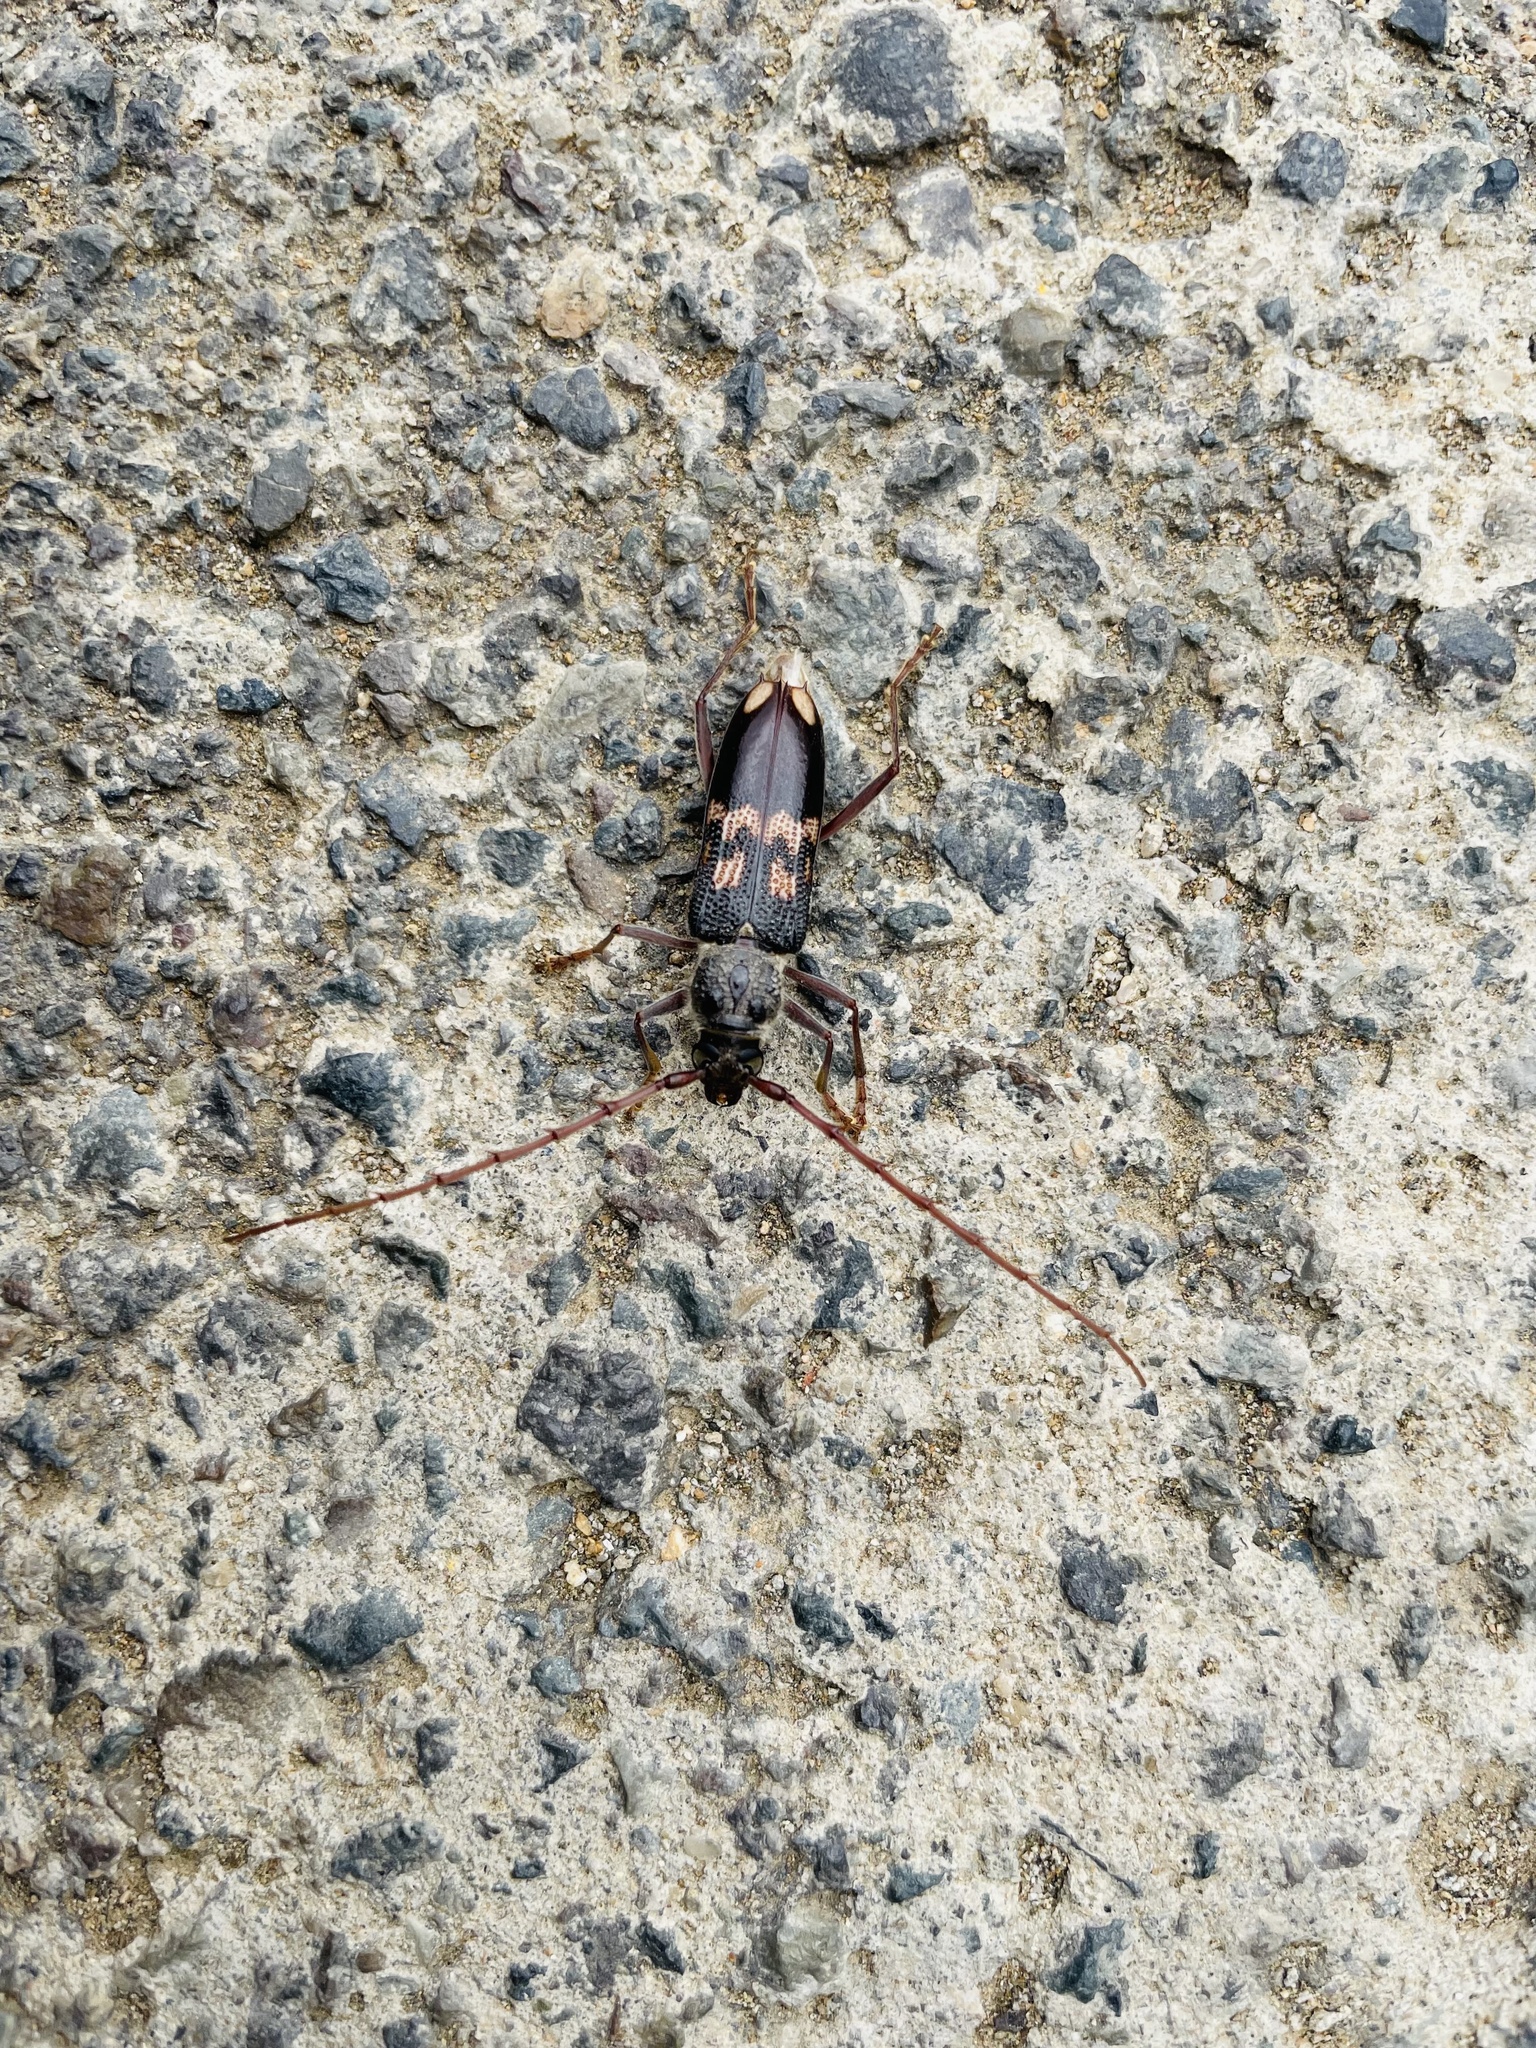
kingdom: Animalia
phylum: Arthropoda
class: Insecta
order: Coleoptera
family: Cerambycidae
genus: Phoracantha
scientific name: Phoracantha semipunctata
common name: Eucalyptus longhorn borer
